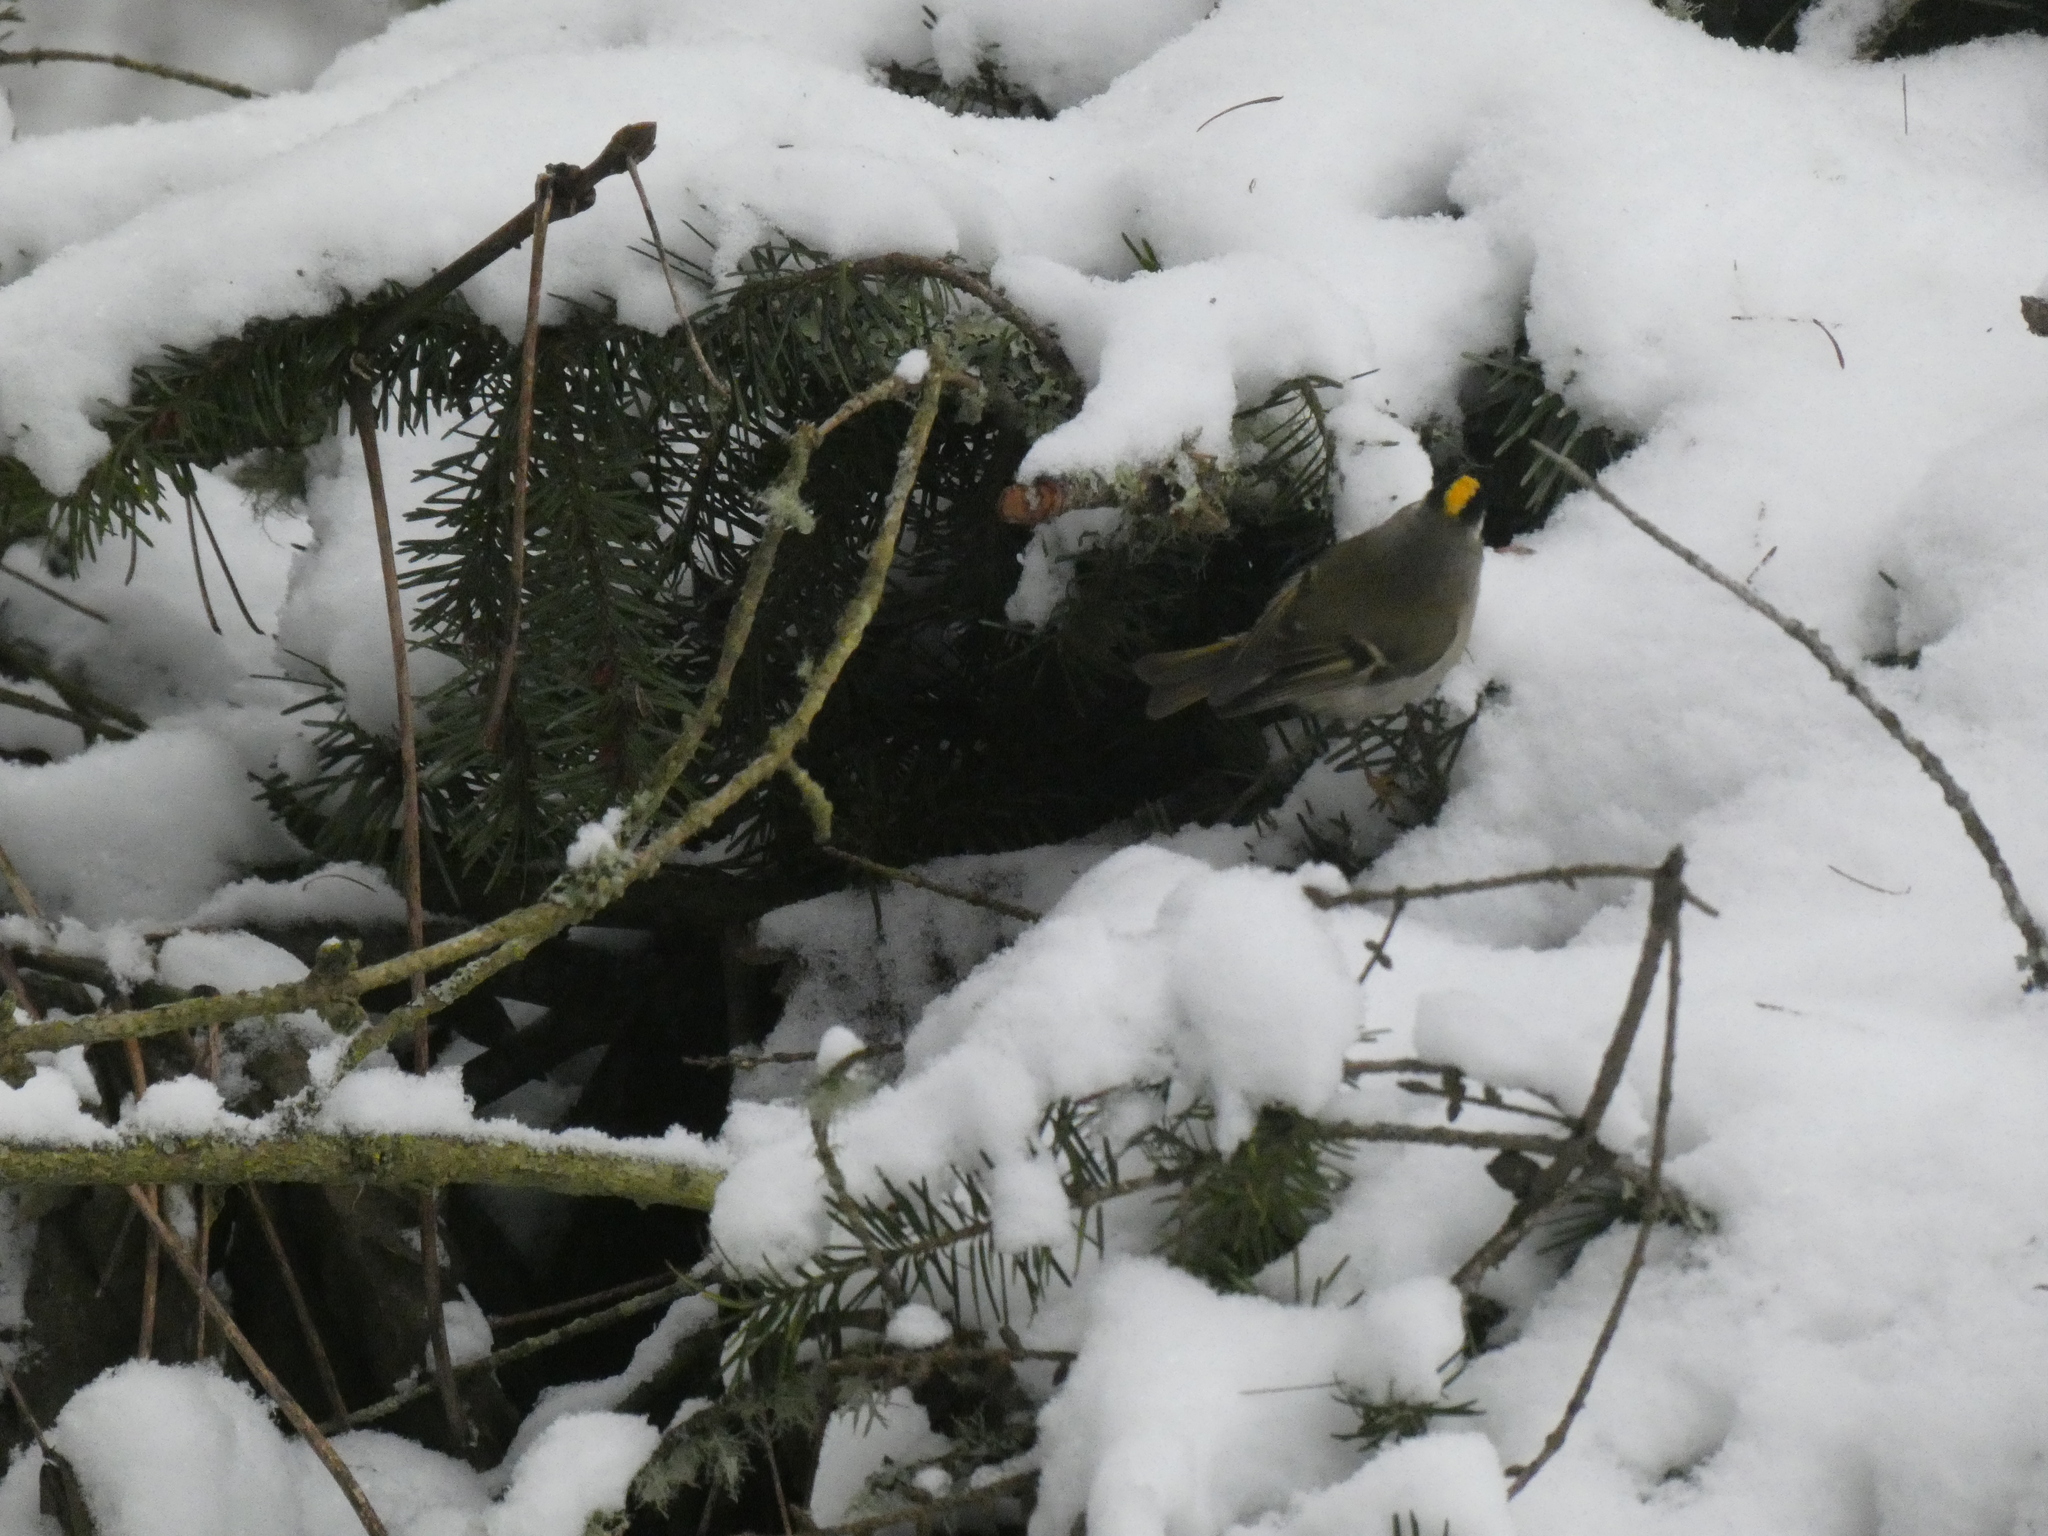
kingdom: Animalia
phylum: Chordata
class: Aves
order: Passeriformes
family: Regulidae
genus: Regulus
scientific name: Regulus satrapa
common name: Golden-crowned kinglet
